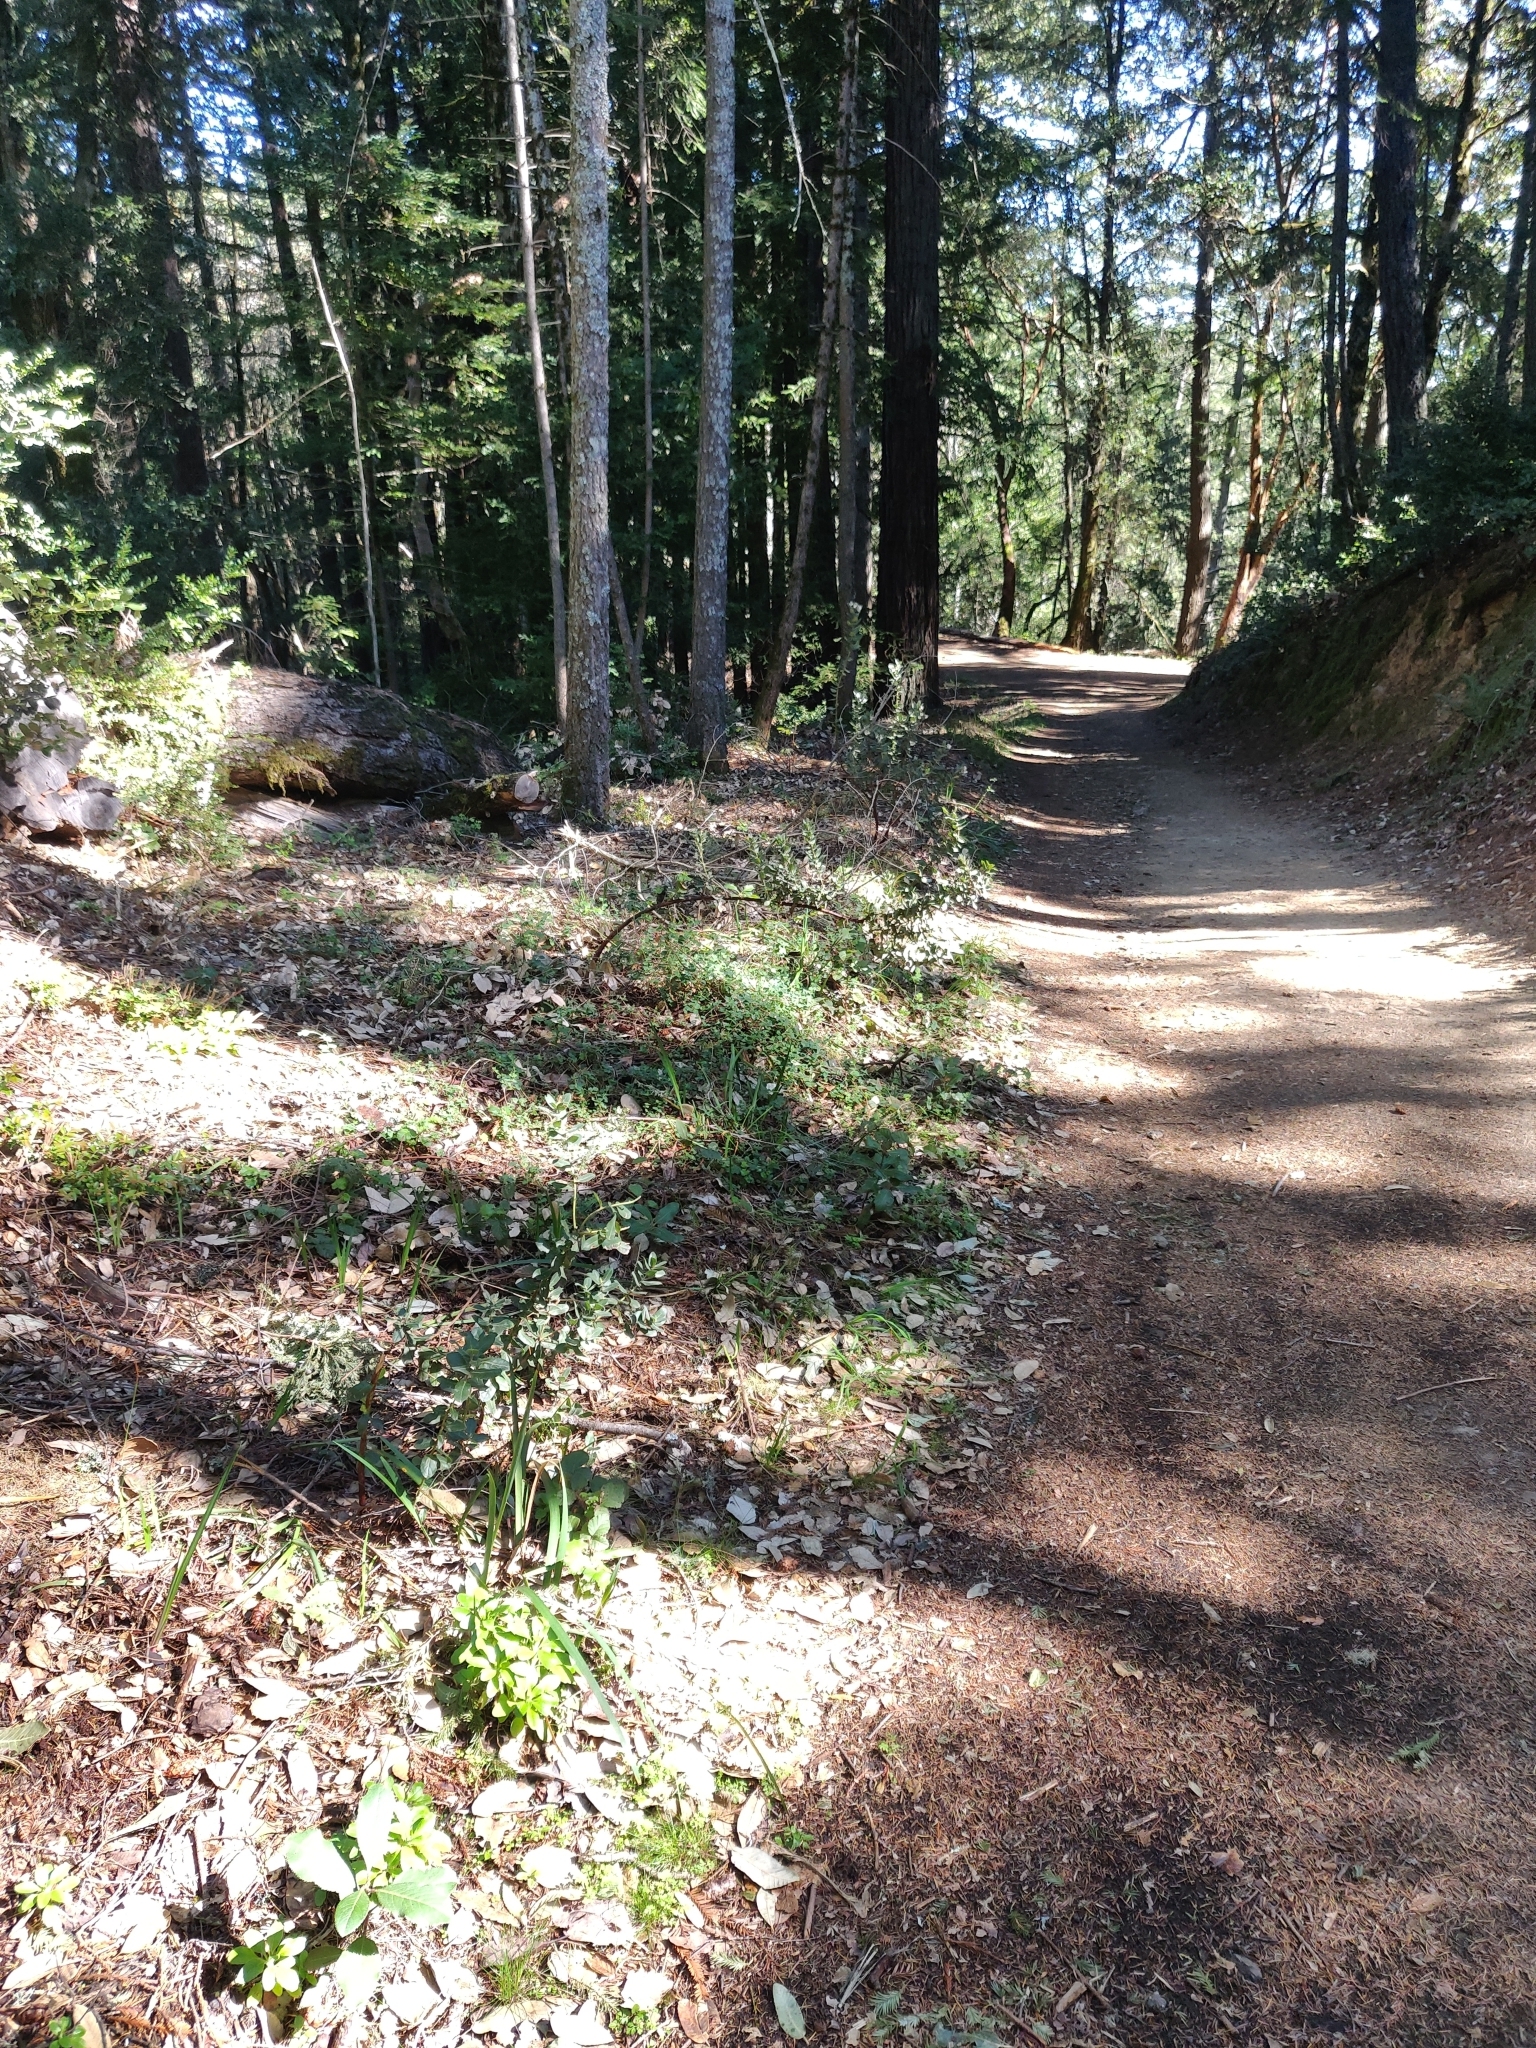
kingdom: Plantae
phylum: Tracheophyta
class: Magnoliopsida
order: Ericales
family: Ericaceae
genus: Arctostaphylos
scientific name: Arctostaphylos regismontana
